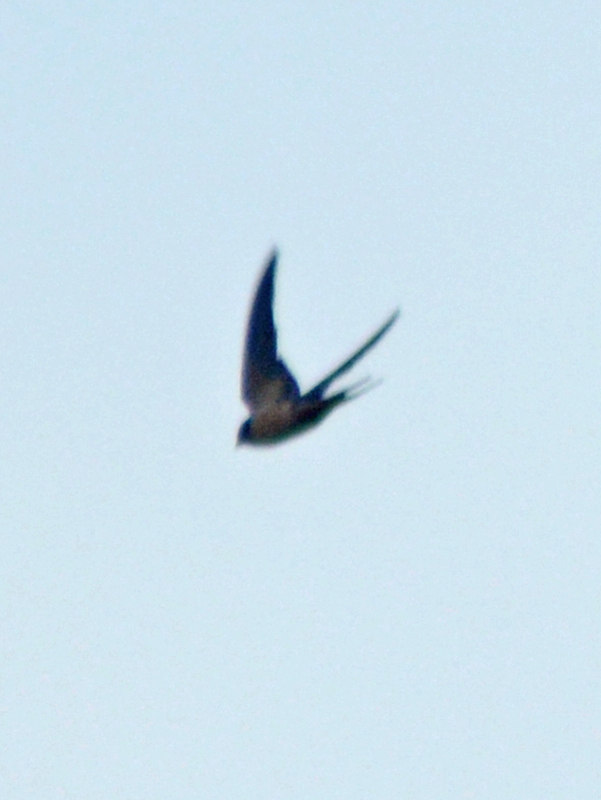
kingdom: Animalia
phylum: Chordata
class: Aves
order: Passeriformes
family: Hirundinidae
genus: Hirundo
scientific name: Hirundo rustica
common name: Barn swallow
